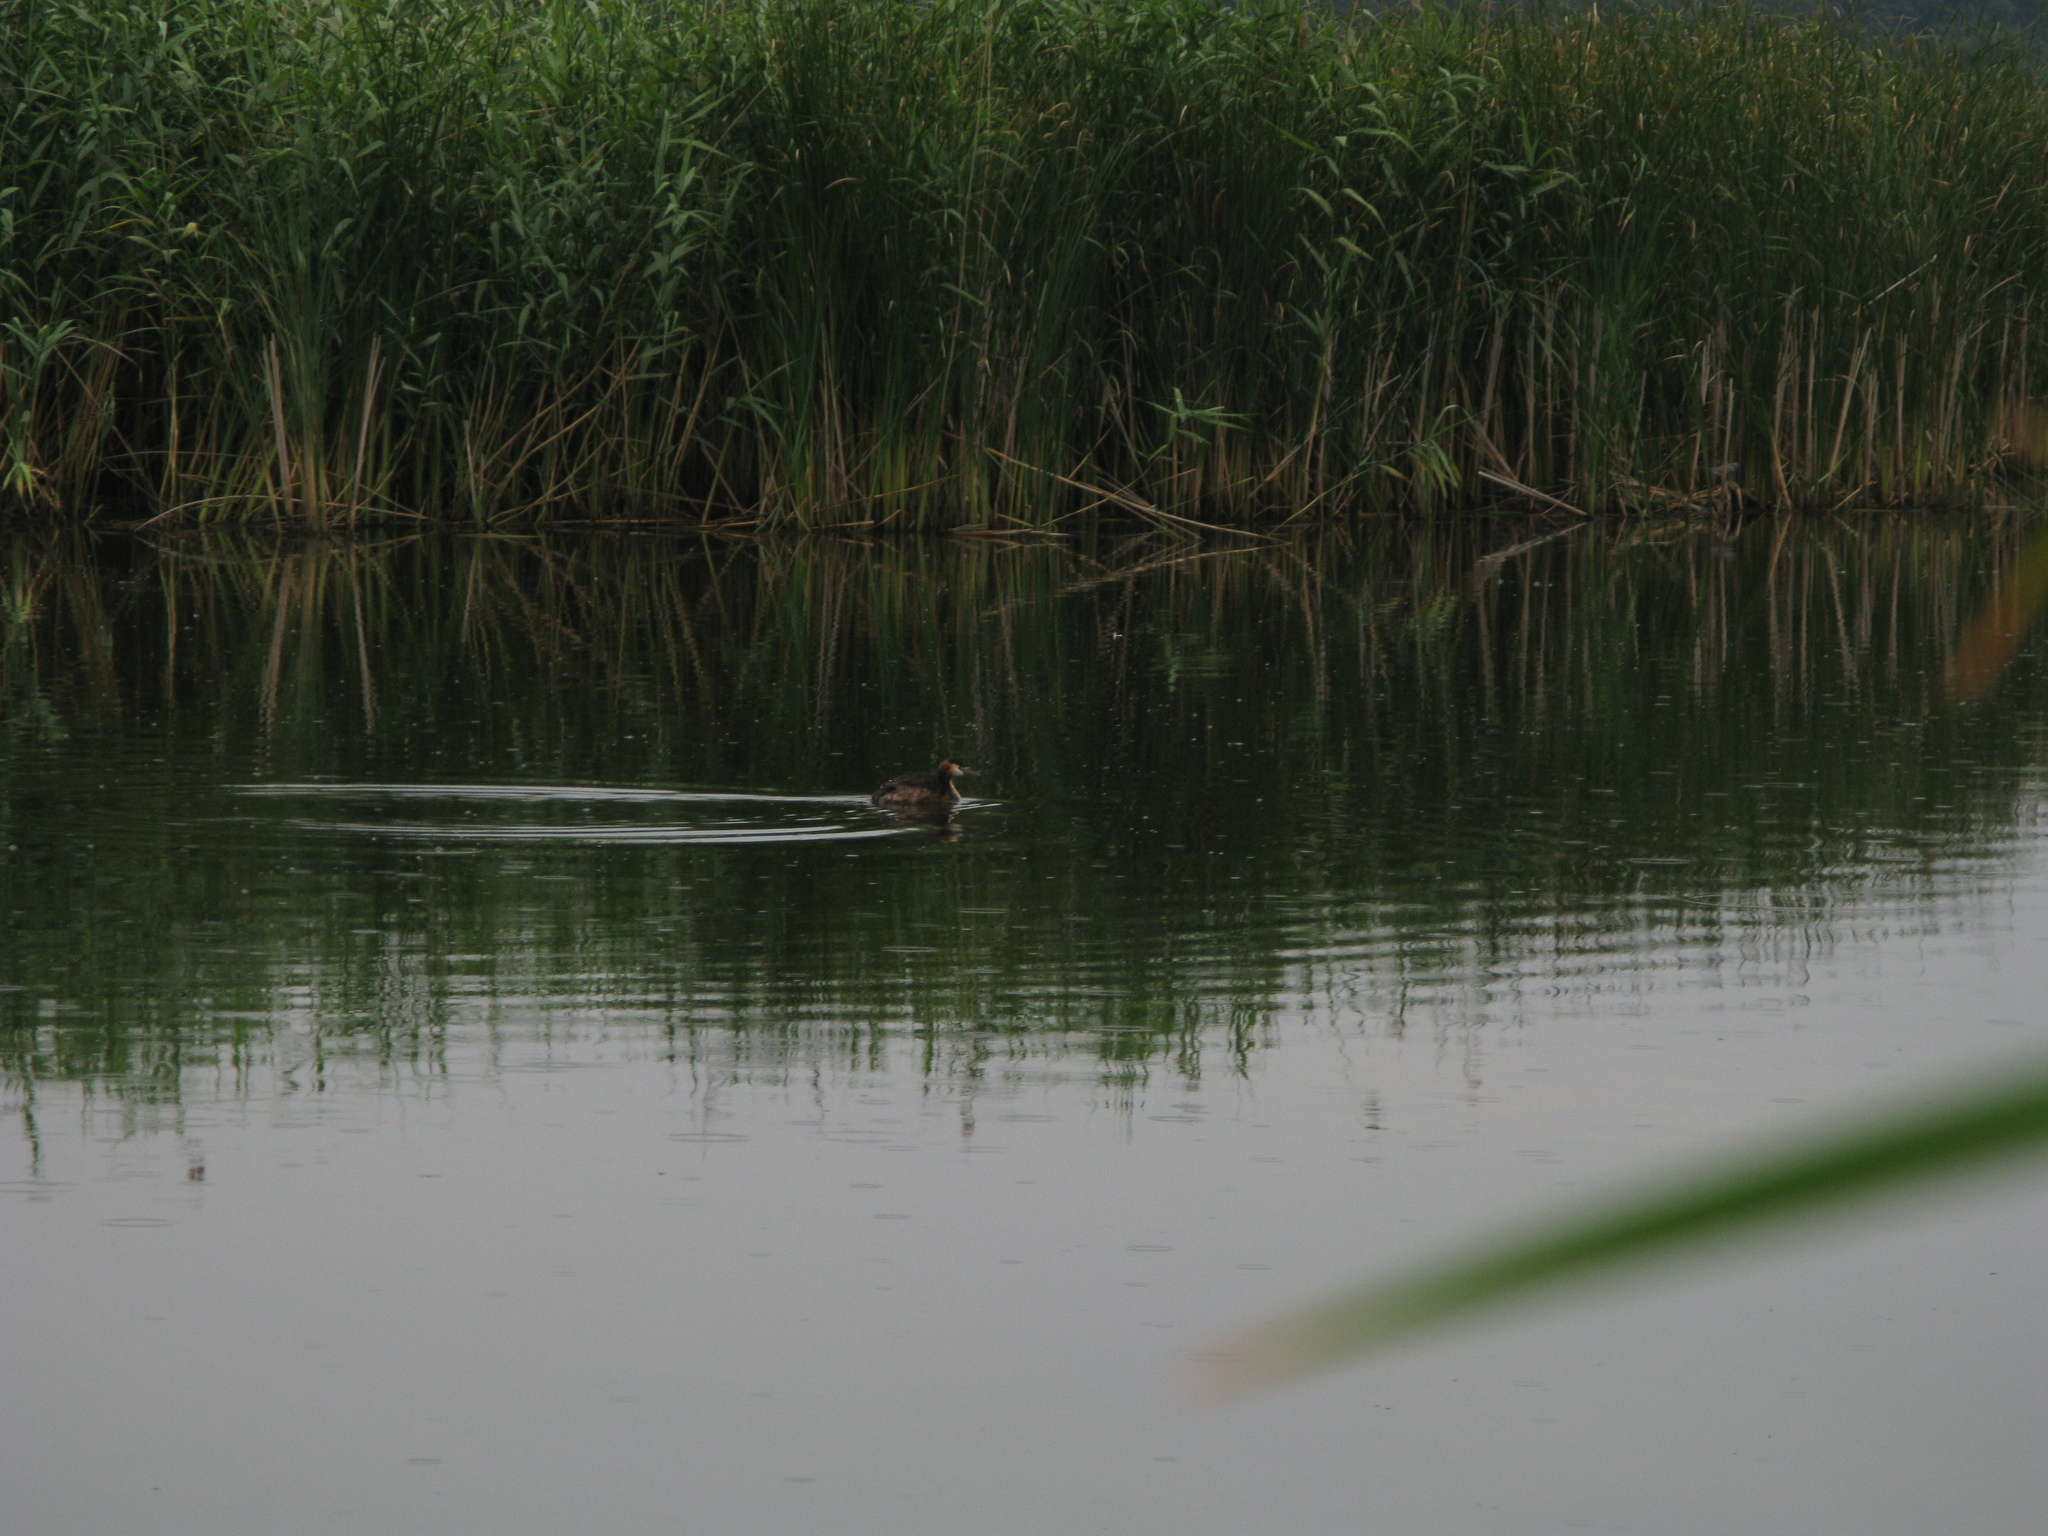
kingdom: Animalia
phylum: Chordata
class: Aves
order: Podicipediformes
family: Podicipedidae
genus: Podiceps
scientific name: Podiceps cristatus
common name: Great crested grebe
